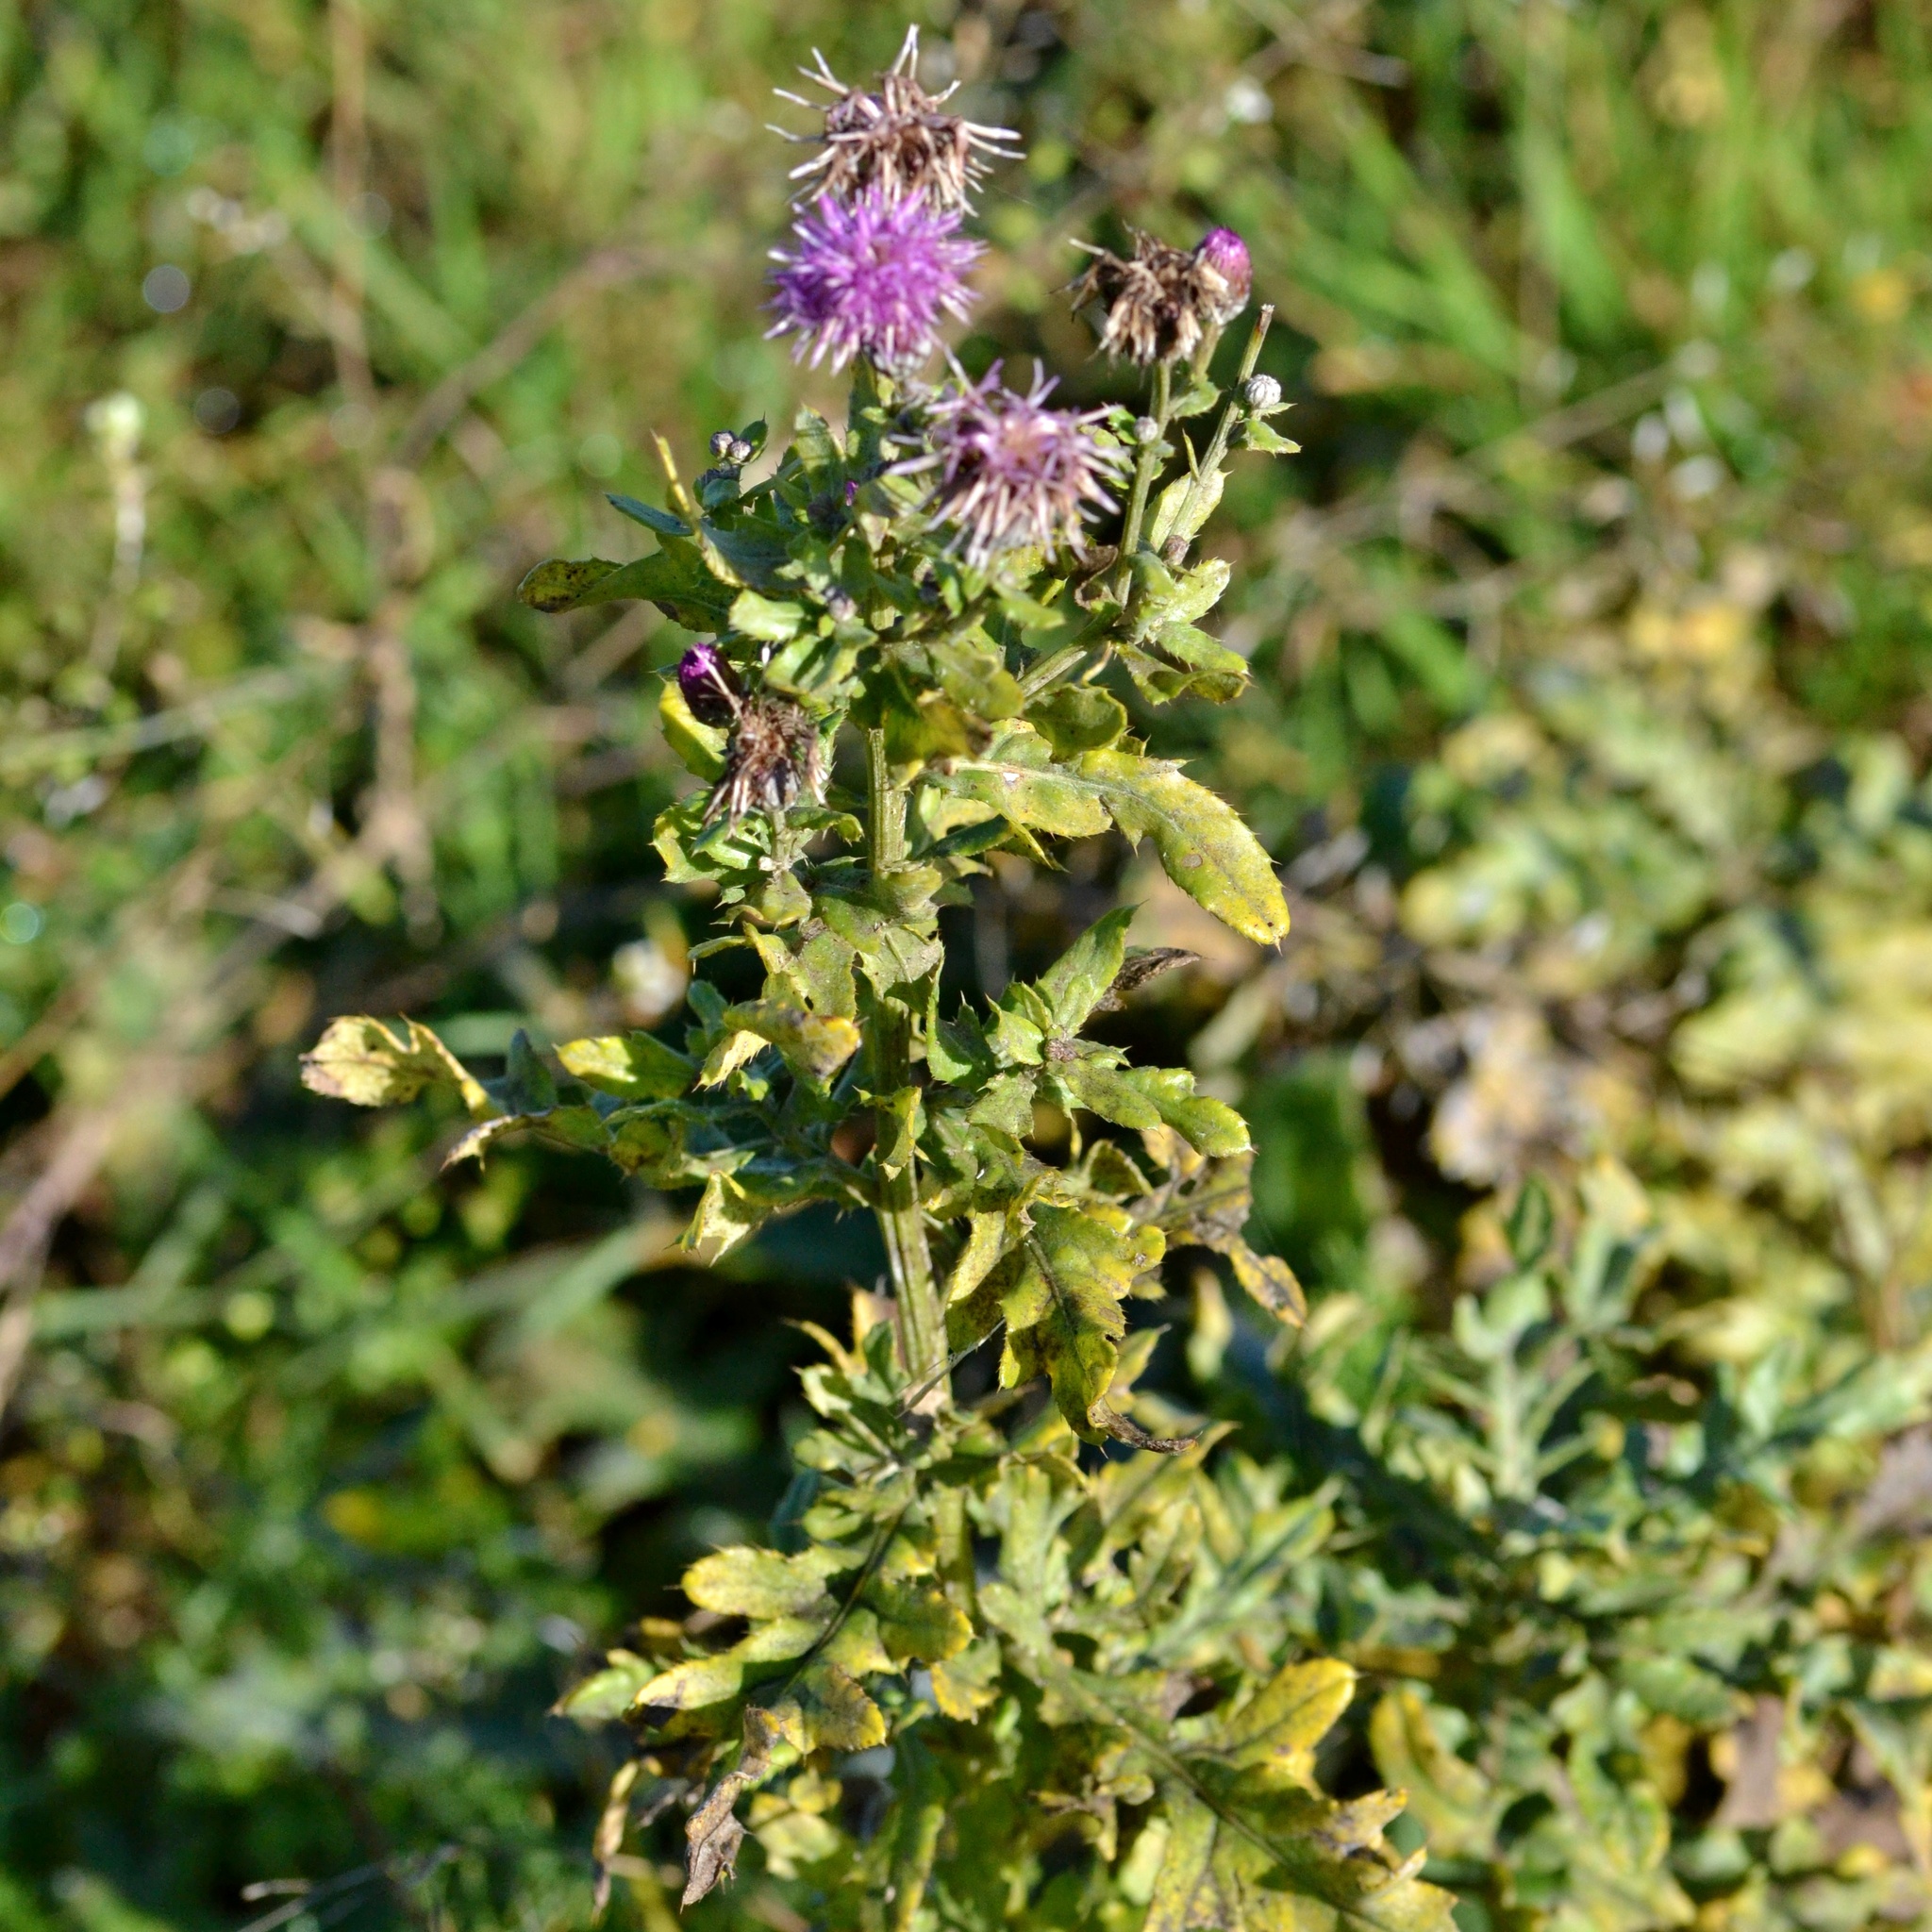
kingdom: Plantae
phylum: Tracheophyta
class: Magnoliopsida
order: Asterales
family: Asteraceae
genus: Cirsium
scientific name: Cirsium arvense
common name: Creeping thistle
